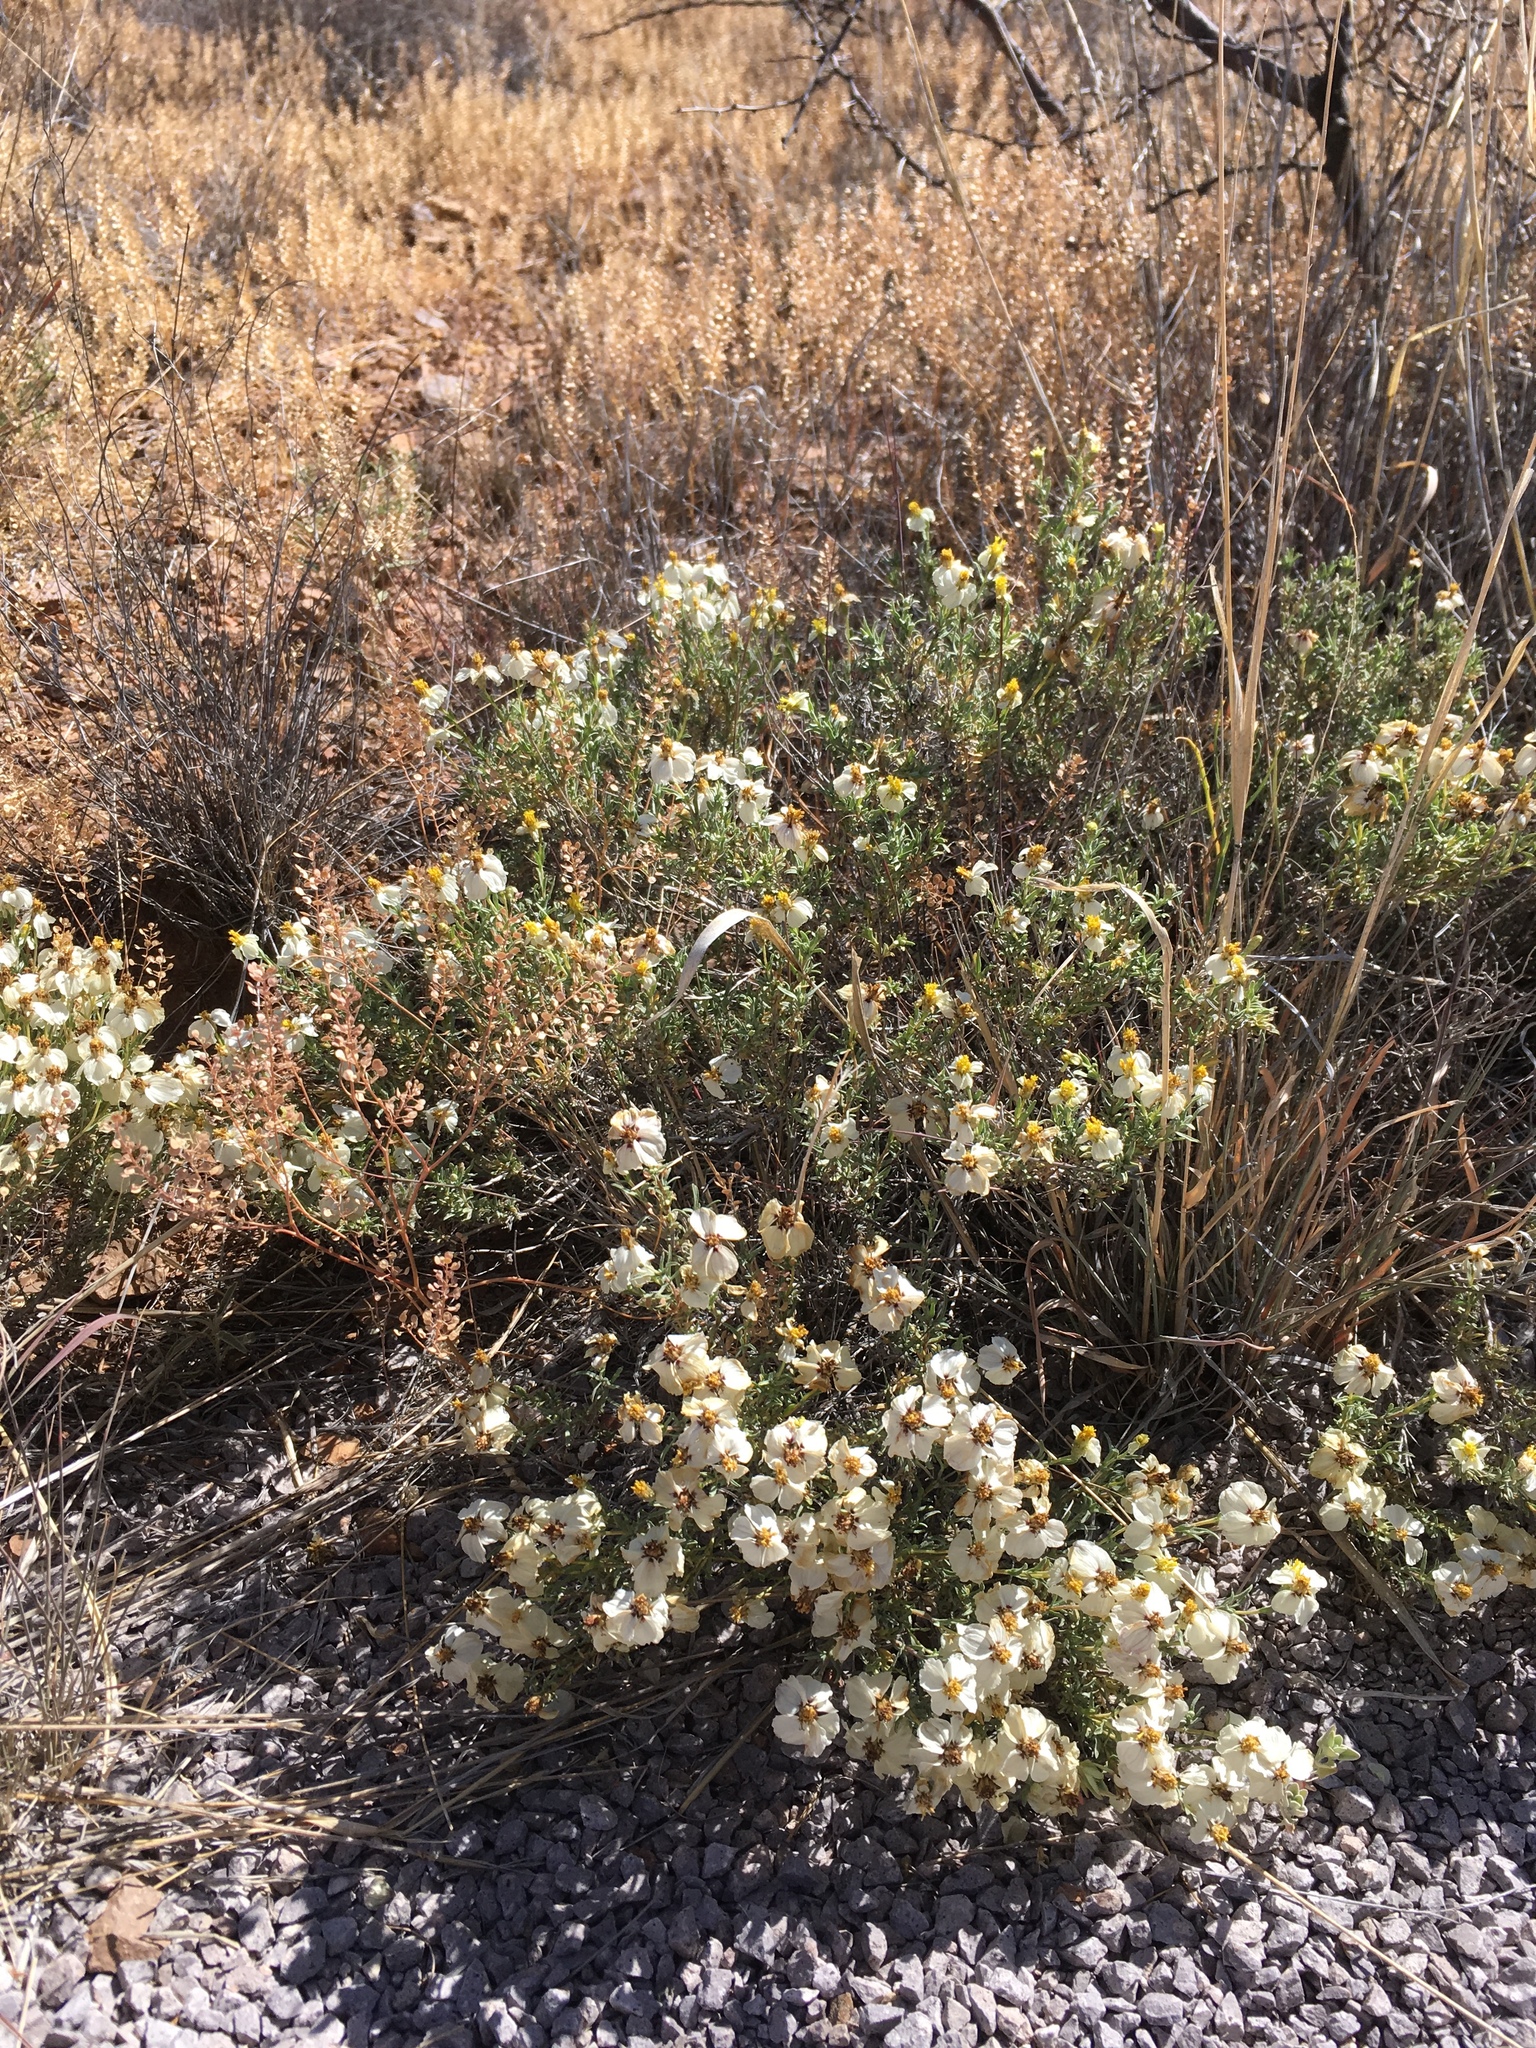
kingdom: Plantae
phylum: Tracheophyta
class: Magnoliopsida
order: Asterales
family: Asteraceae
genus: Zinnia
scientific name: Zinnia acerosa
